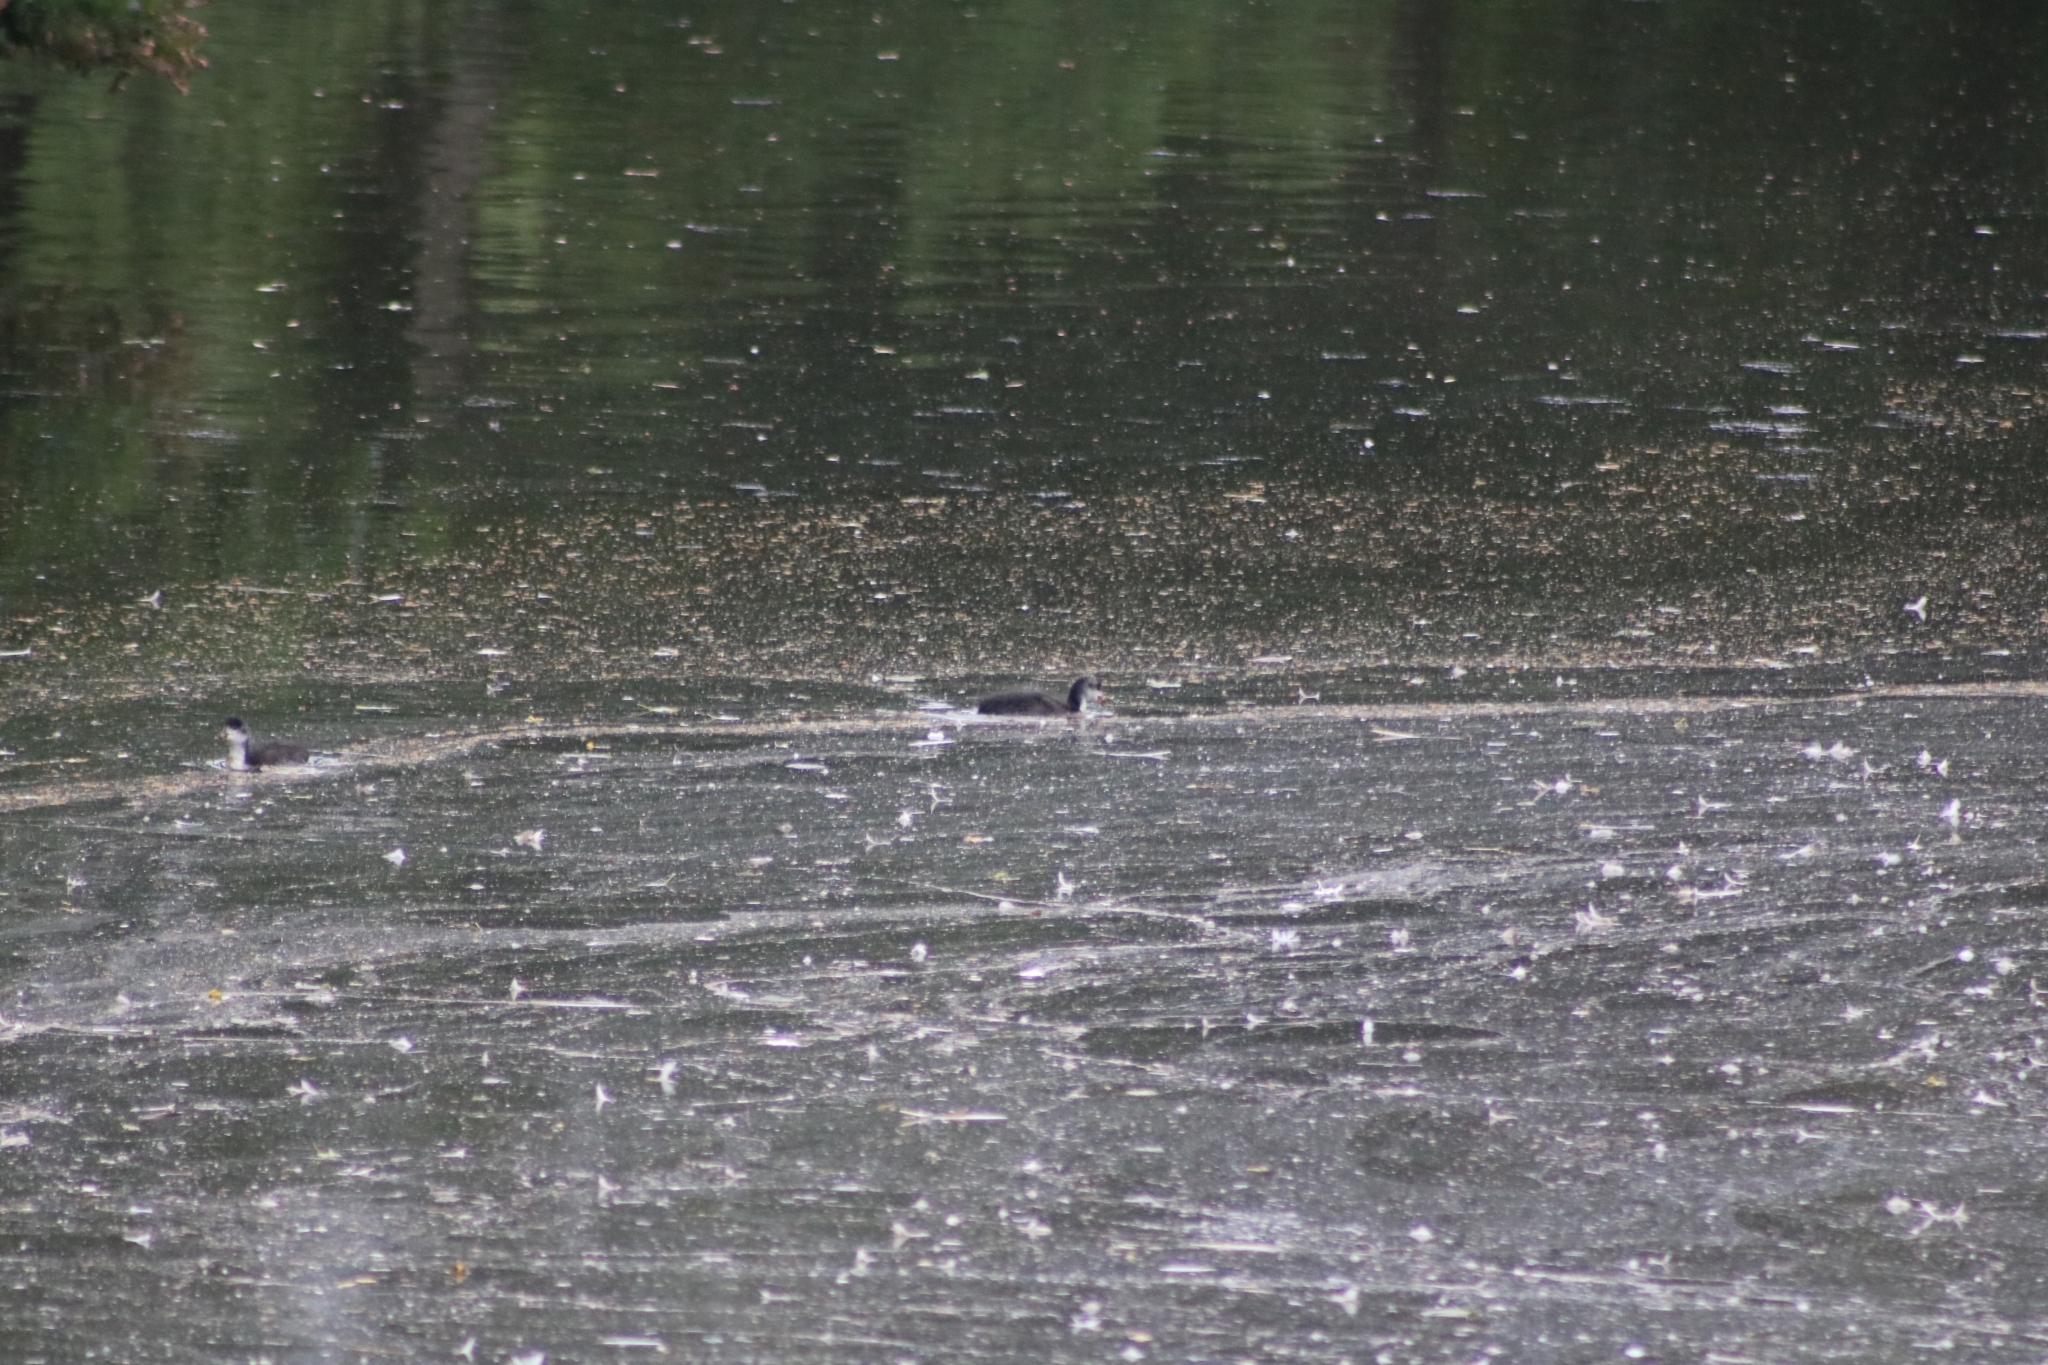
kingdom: Animalia
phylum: Chordata
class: Aves
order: Gruiformes
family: Rallidae
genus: Fulica
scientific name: Fulica atra
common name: Eurasian coot
